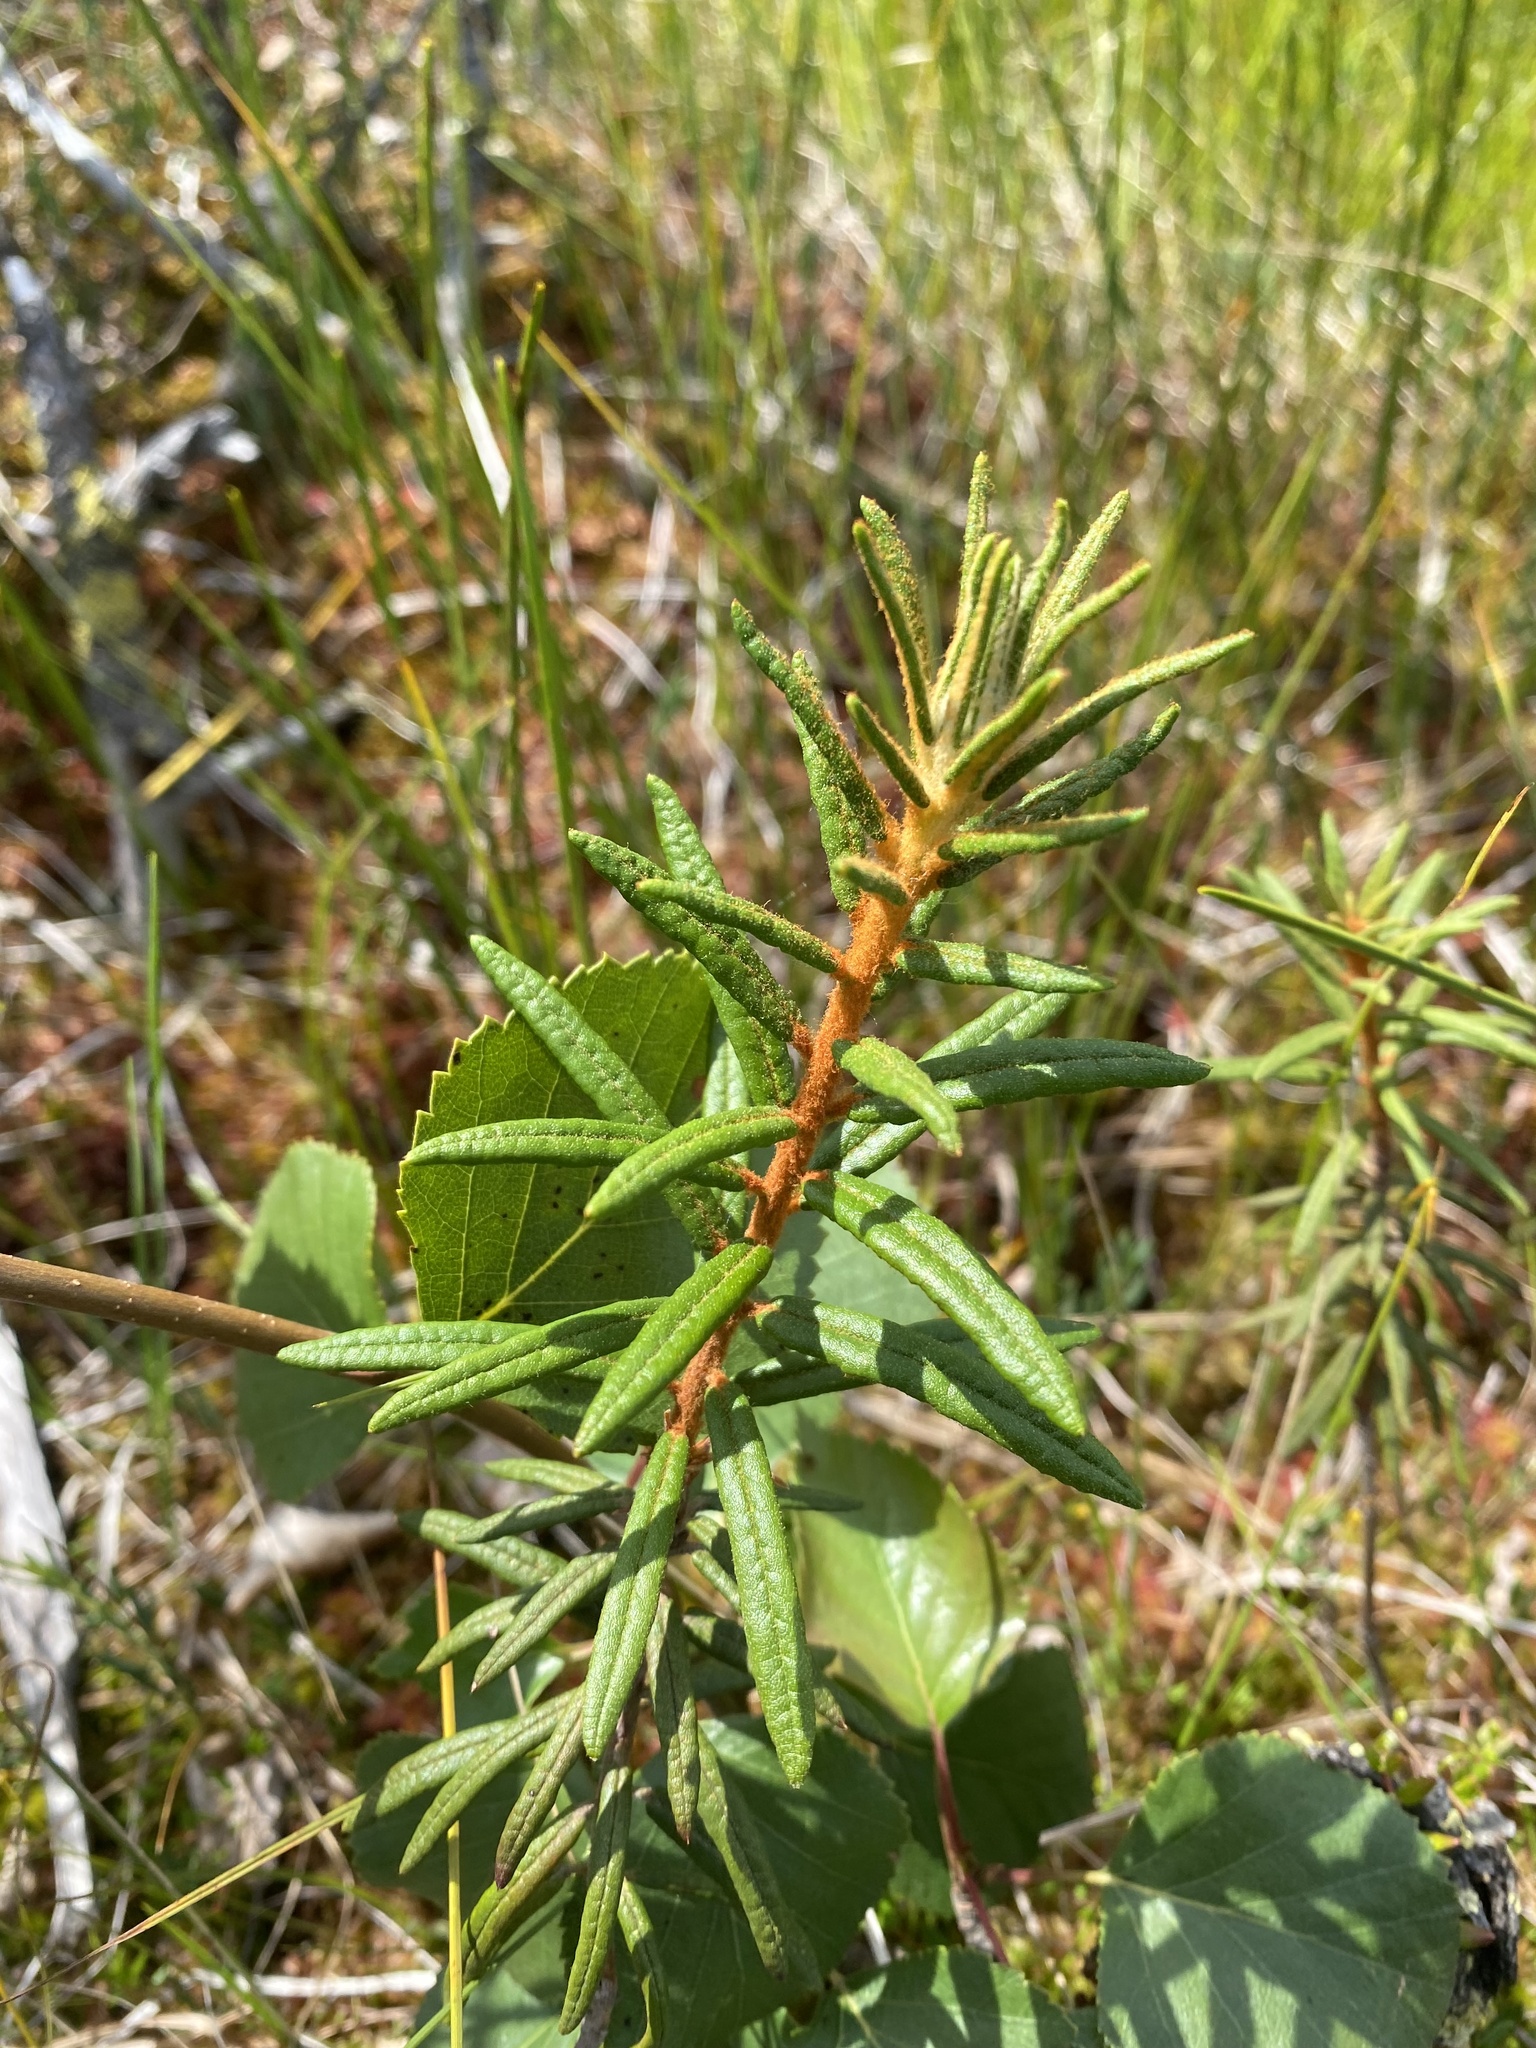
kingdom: Plantae
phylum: Tracheophyta
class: Magnoliopsida
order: Ericales
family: Ericaceae
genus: Rhododendron
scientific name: Rhododendron tomentosum
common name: Marsh labrador tea
